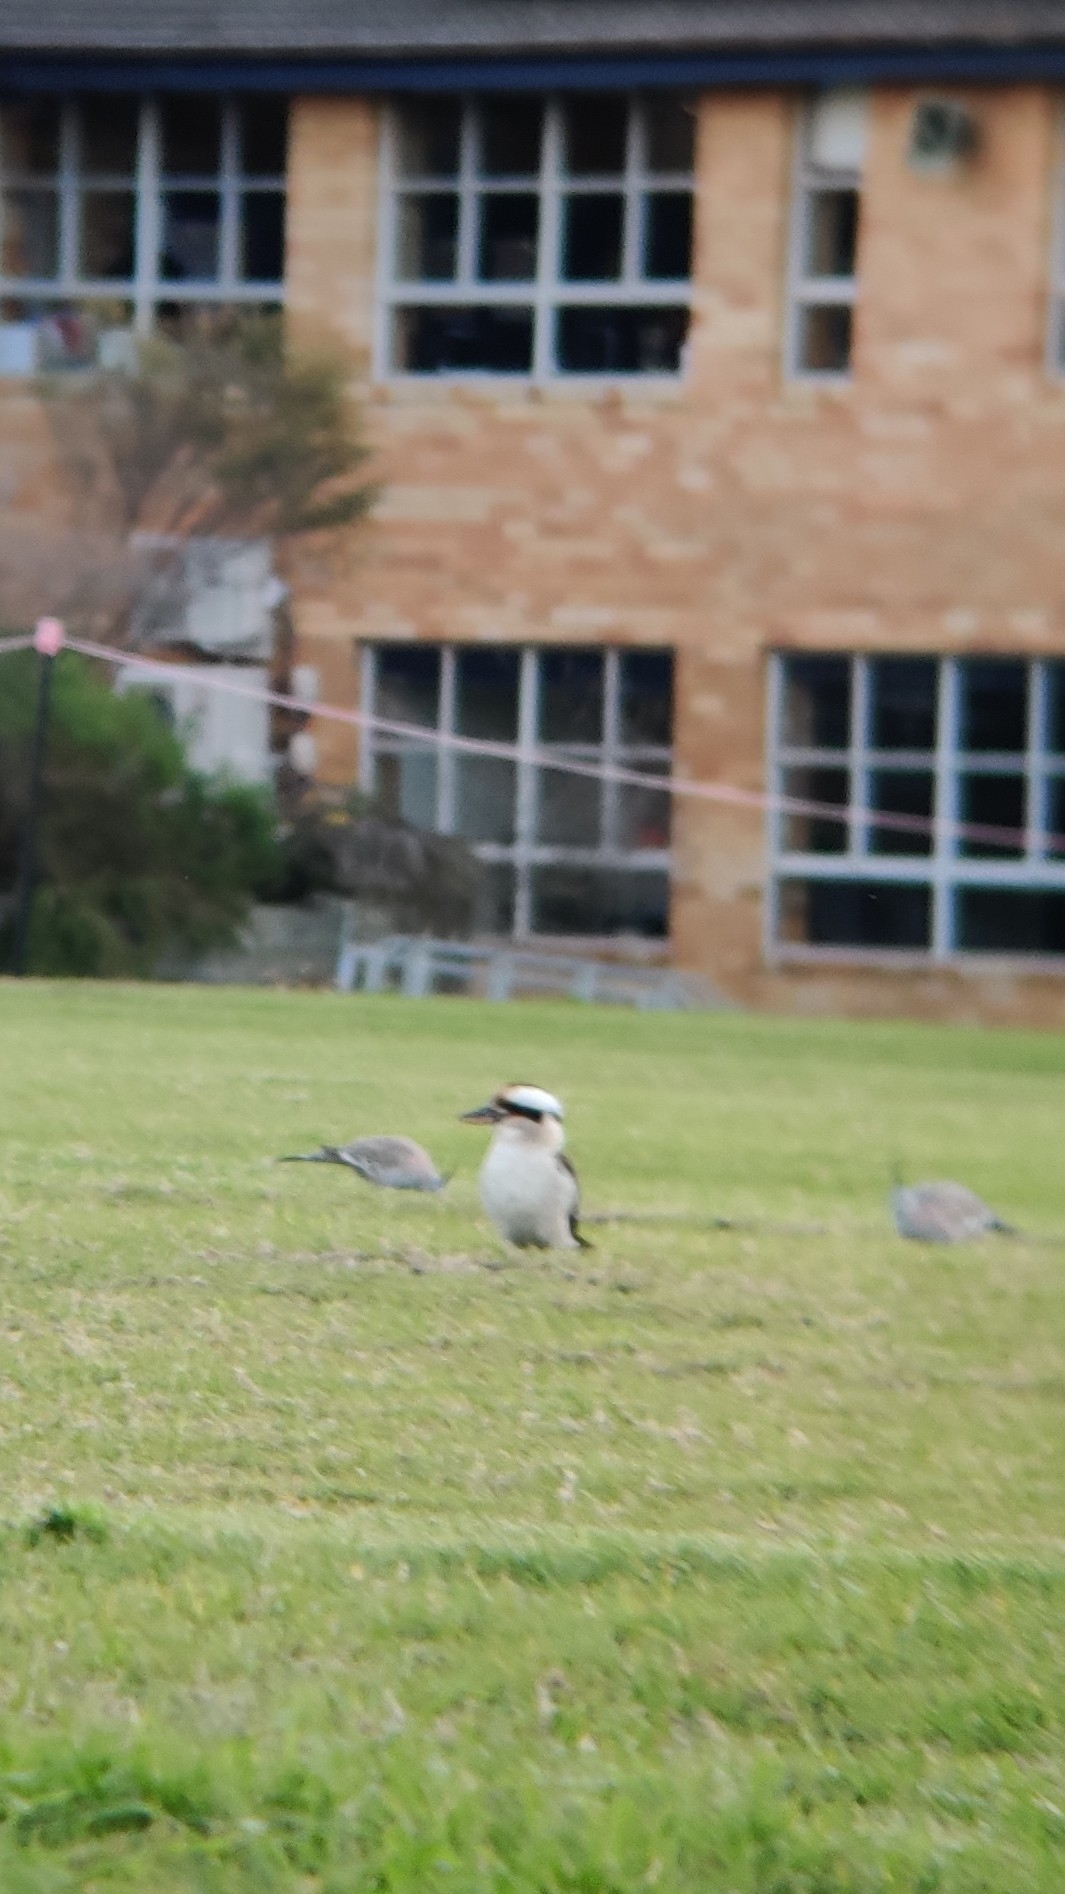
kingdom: Animalia
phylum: Chordata
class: Aves
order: Coraciiformes
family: Alcedinidae
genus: Dacelo
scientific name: Dacelo novaeguineae
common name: Laughing kookaburra
